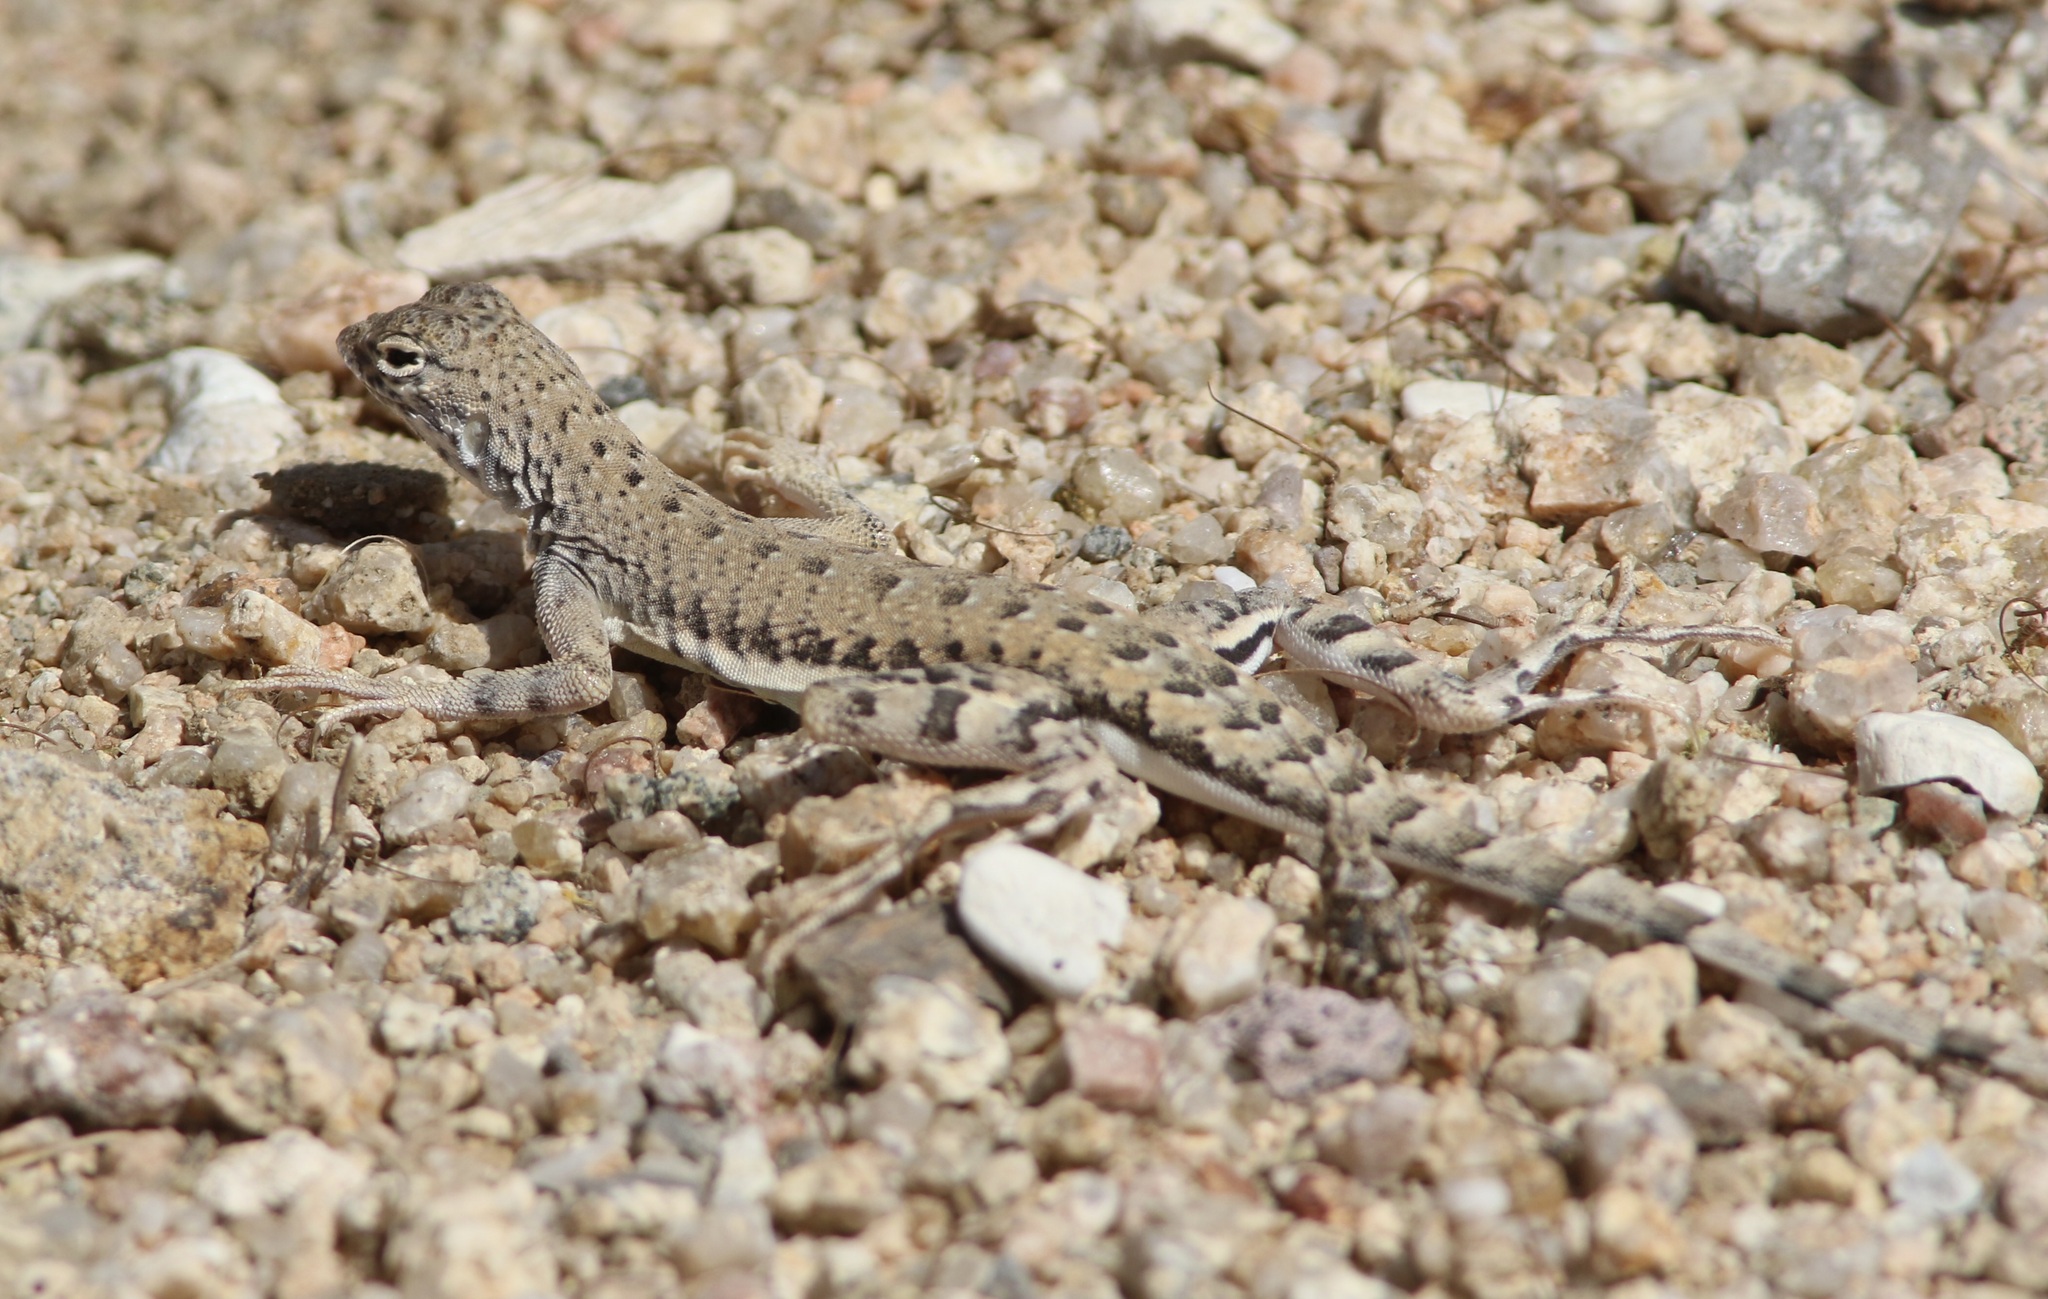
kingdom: Animalia
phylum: Chordata
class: Squamata
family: Phrynosomatidae
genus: Callisaurus
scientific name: Callisaurus draconoides
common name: Zebra-tailed lizard
